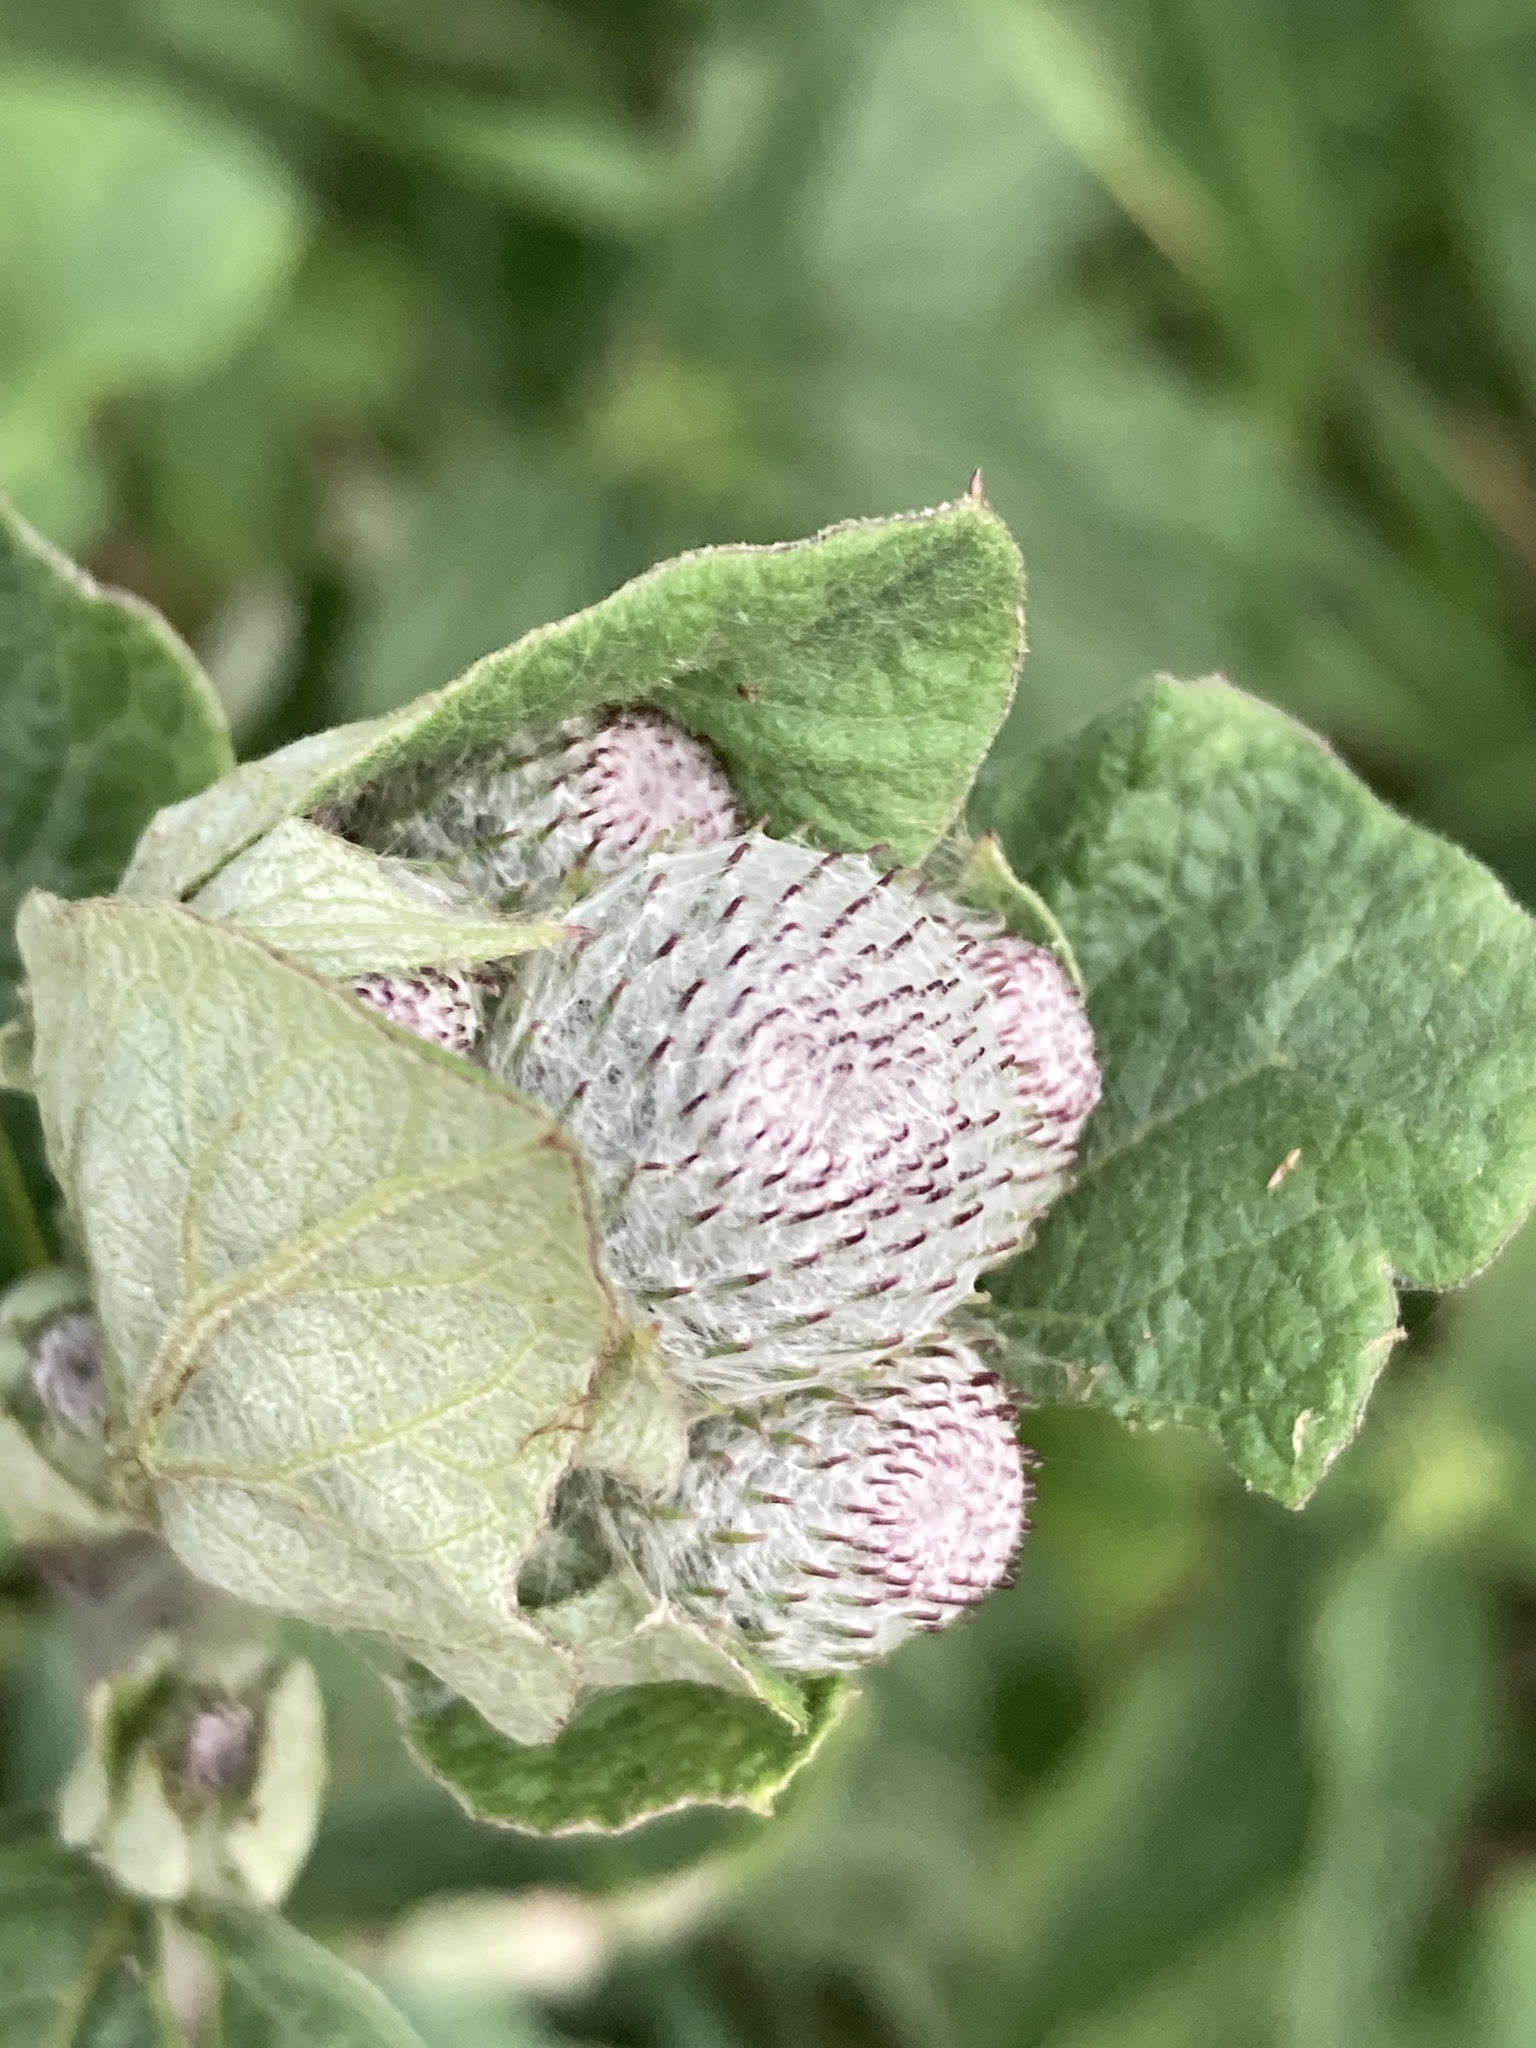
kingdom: Plantae
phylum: Tracheophyta
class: Magnoliopsida
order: Asterales
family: Asteraceae
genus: Arctium
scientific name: Arctium tomentosum
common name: Woolly burdock
